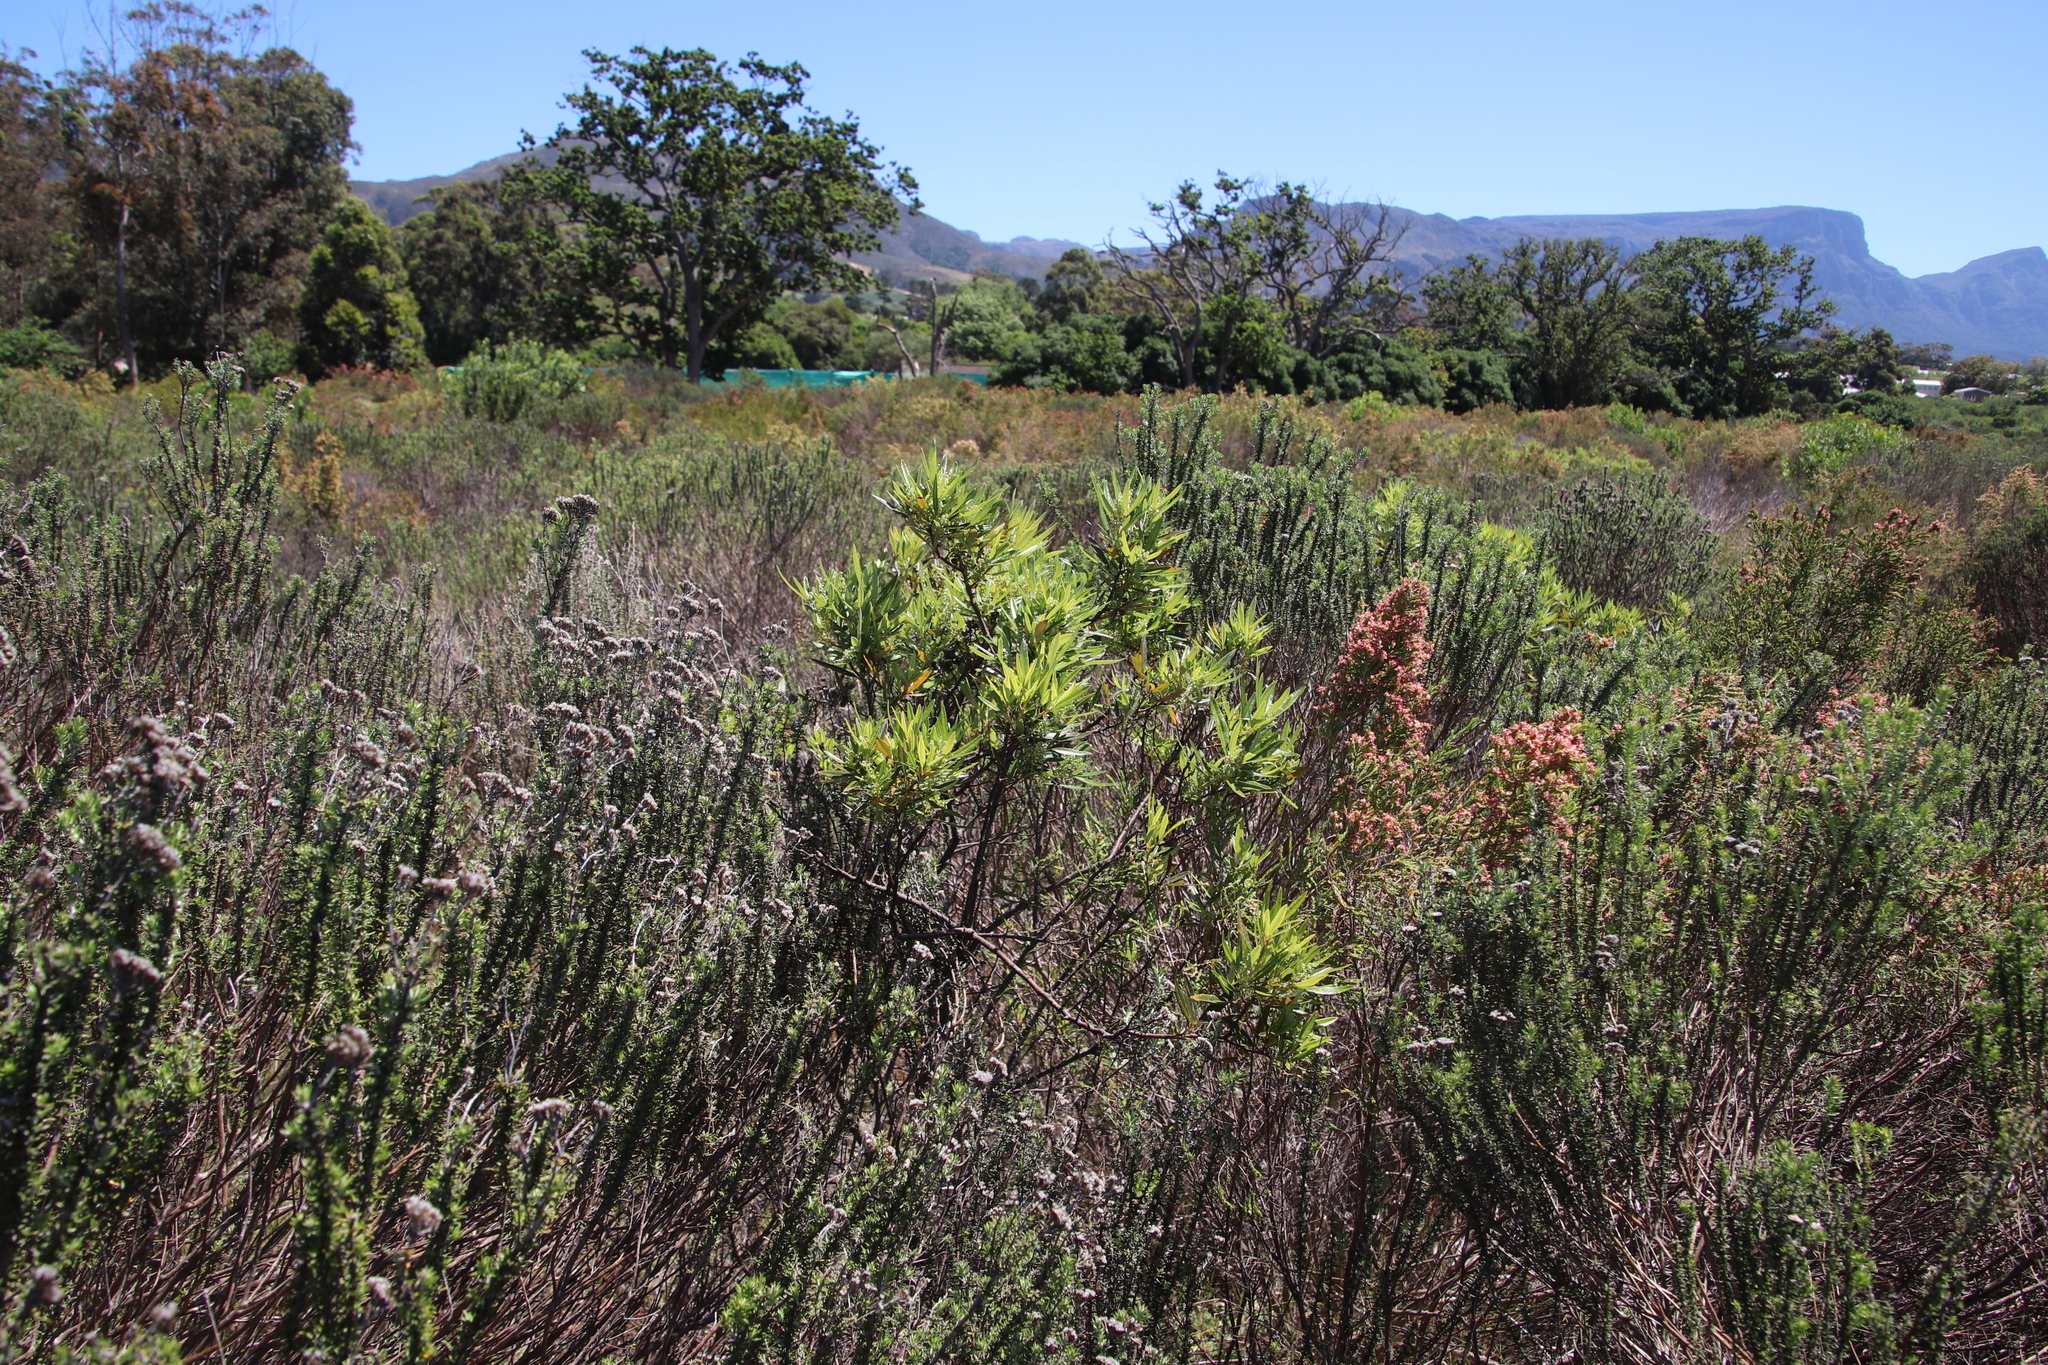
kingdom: Plantae
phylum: Tracheophyta
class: Magnoliopsida
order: Sapindales
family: Anacardiaceae
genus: Searsia
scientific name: Searsia angustifolia
